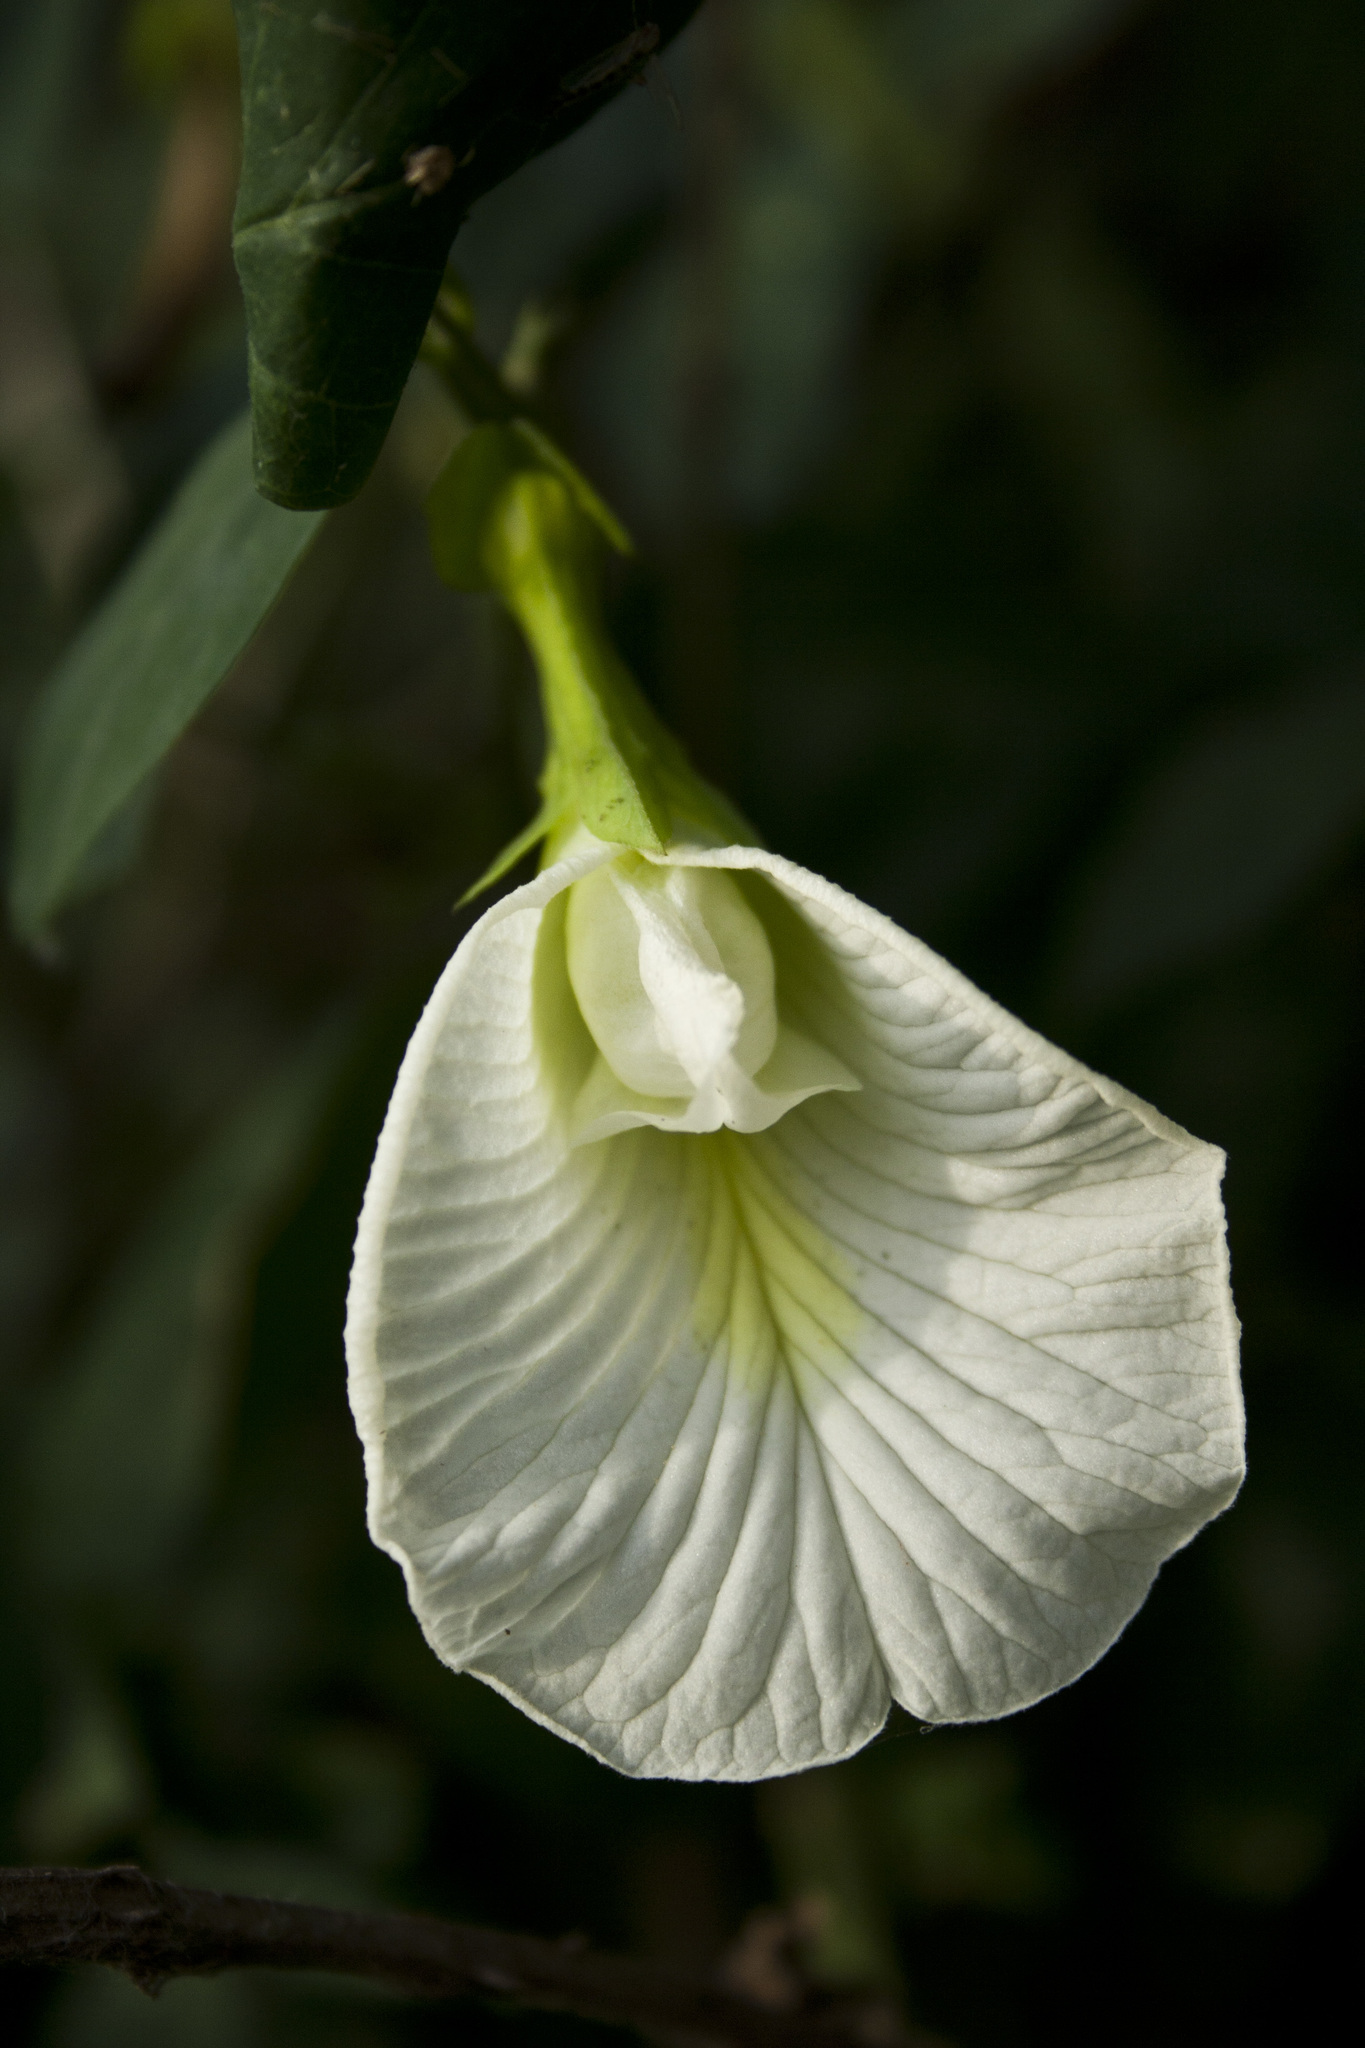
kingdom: Plantae
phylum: Tracheophyta
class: Magnoliopsida
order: Fabales
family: Fabaceae
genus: Clitoria
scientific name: Clitoria ternatea
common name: Asian pigeonwings
